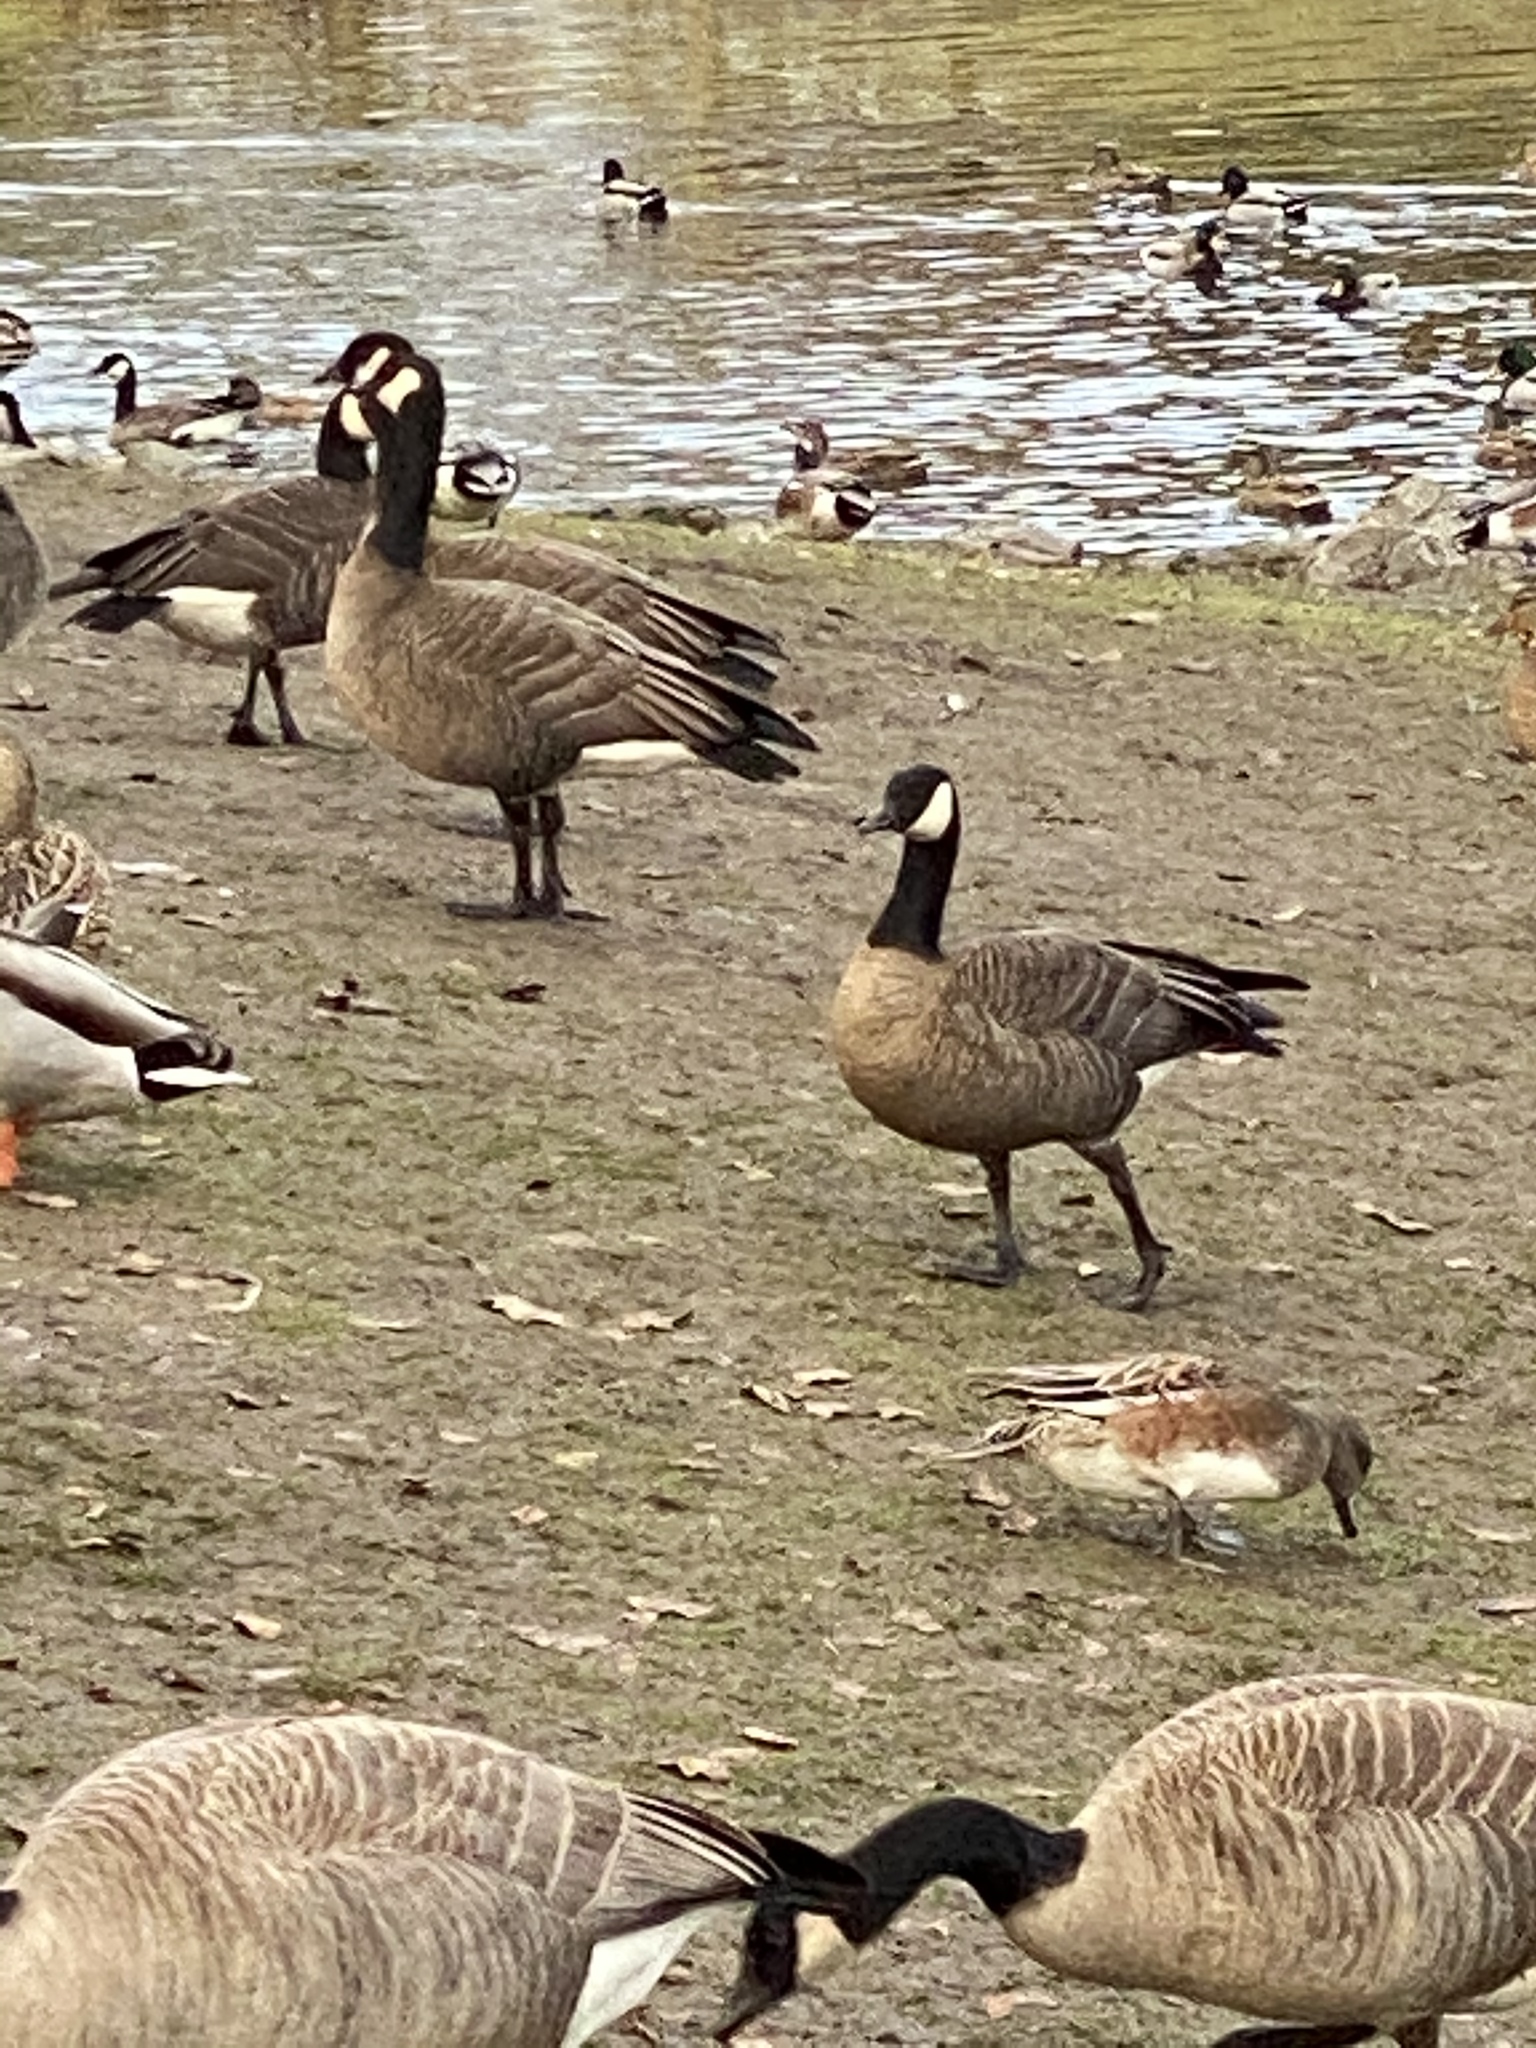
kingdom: Animalia
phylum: Chordata
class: Aves
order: Anseriformes
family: Anatidae
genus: Branta
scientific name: Branta canadensis
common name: Canada goose
